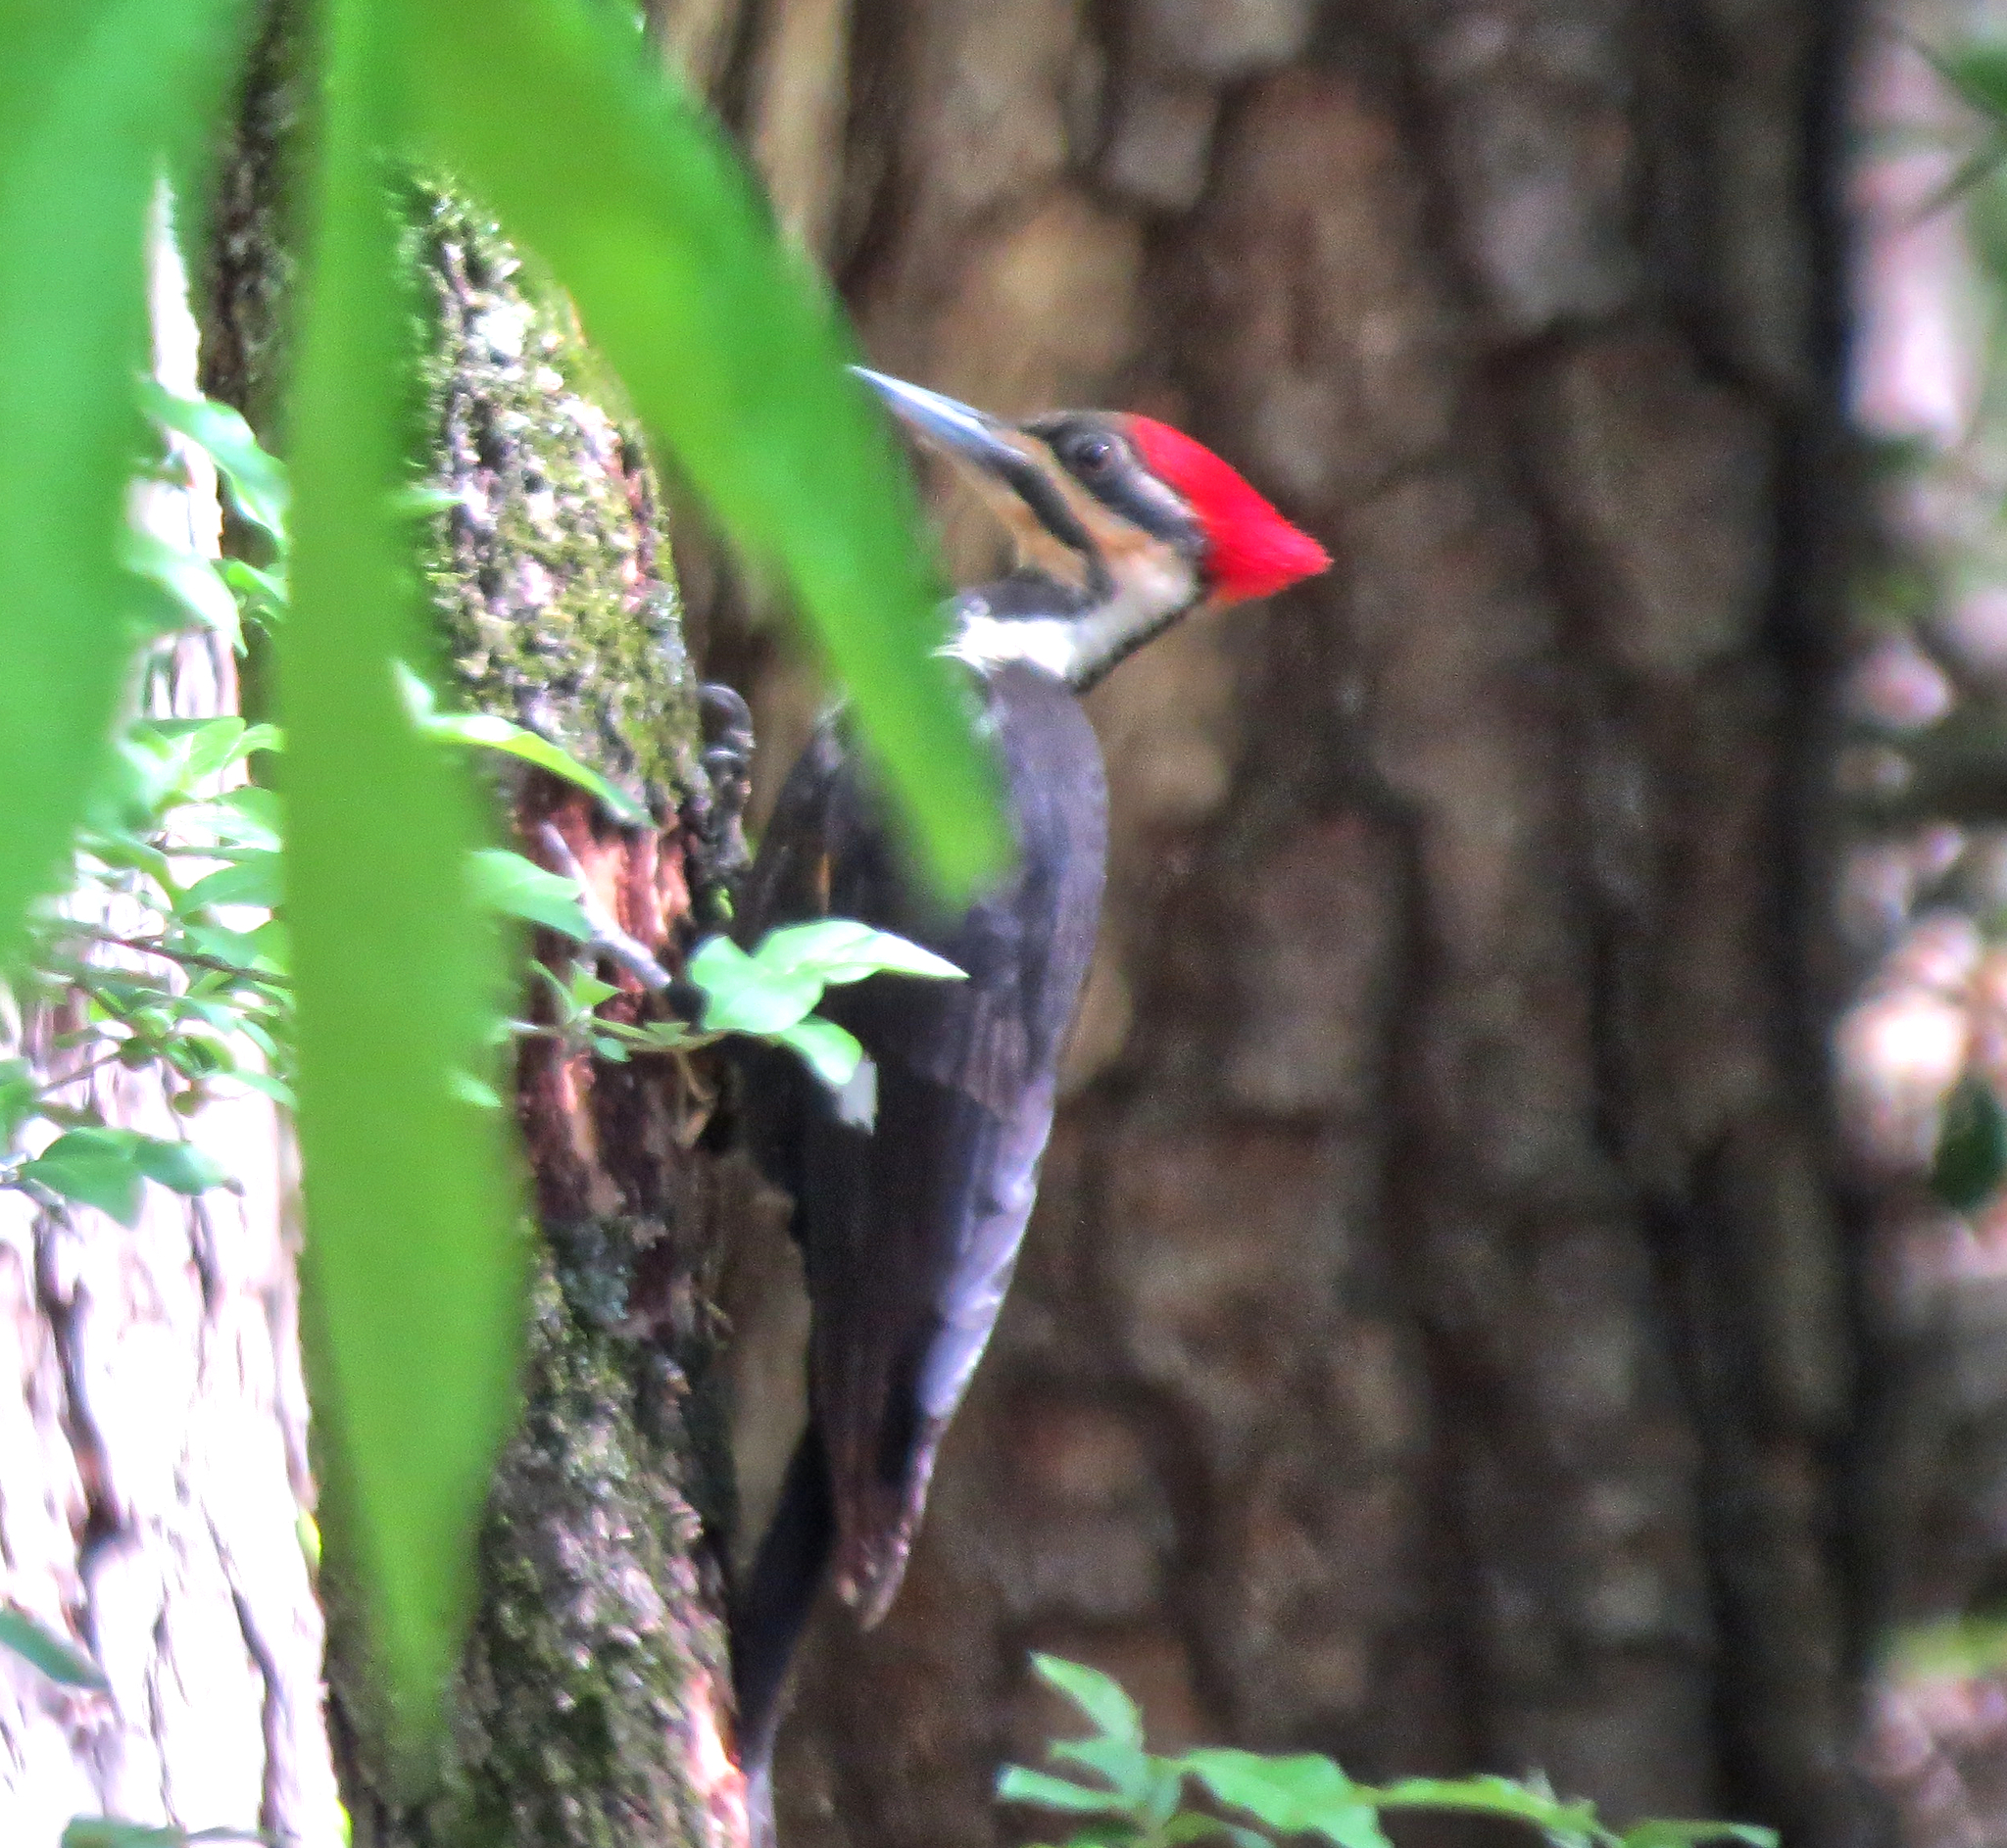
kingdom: Animalia
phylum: Chordata
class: Aves
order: Piciformes
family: Picidae
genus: Dryocopus
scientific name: Dryocopus pileatus
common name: Pileated woodpecker
